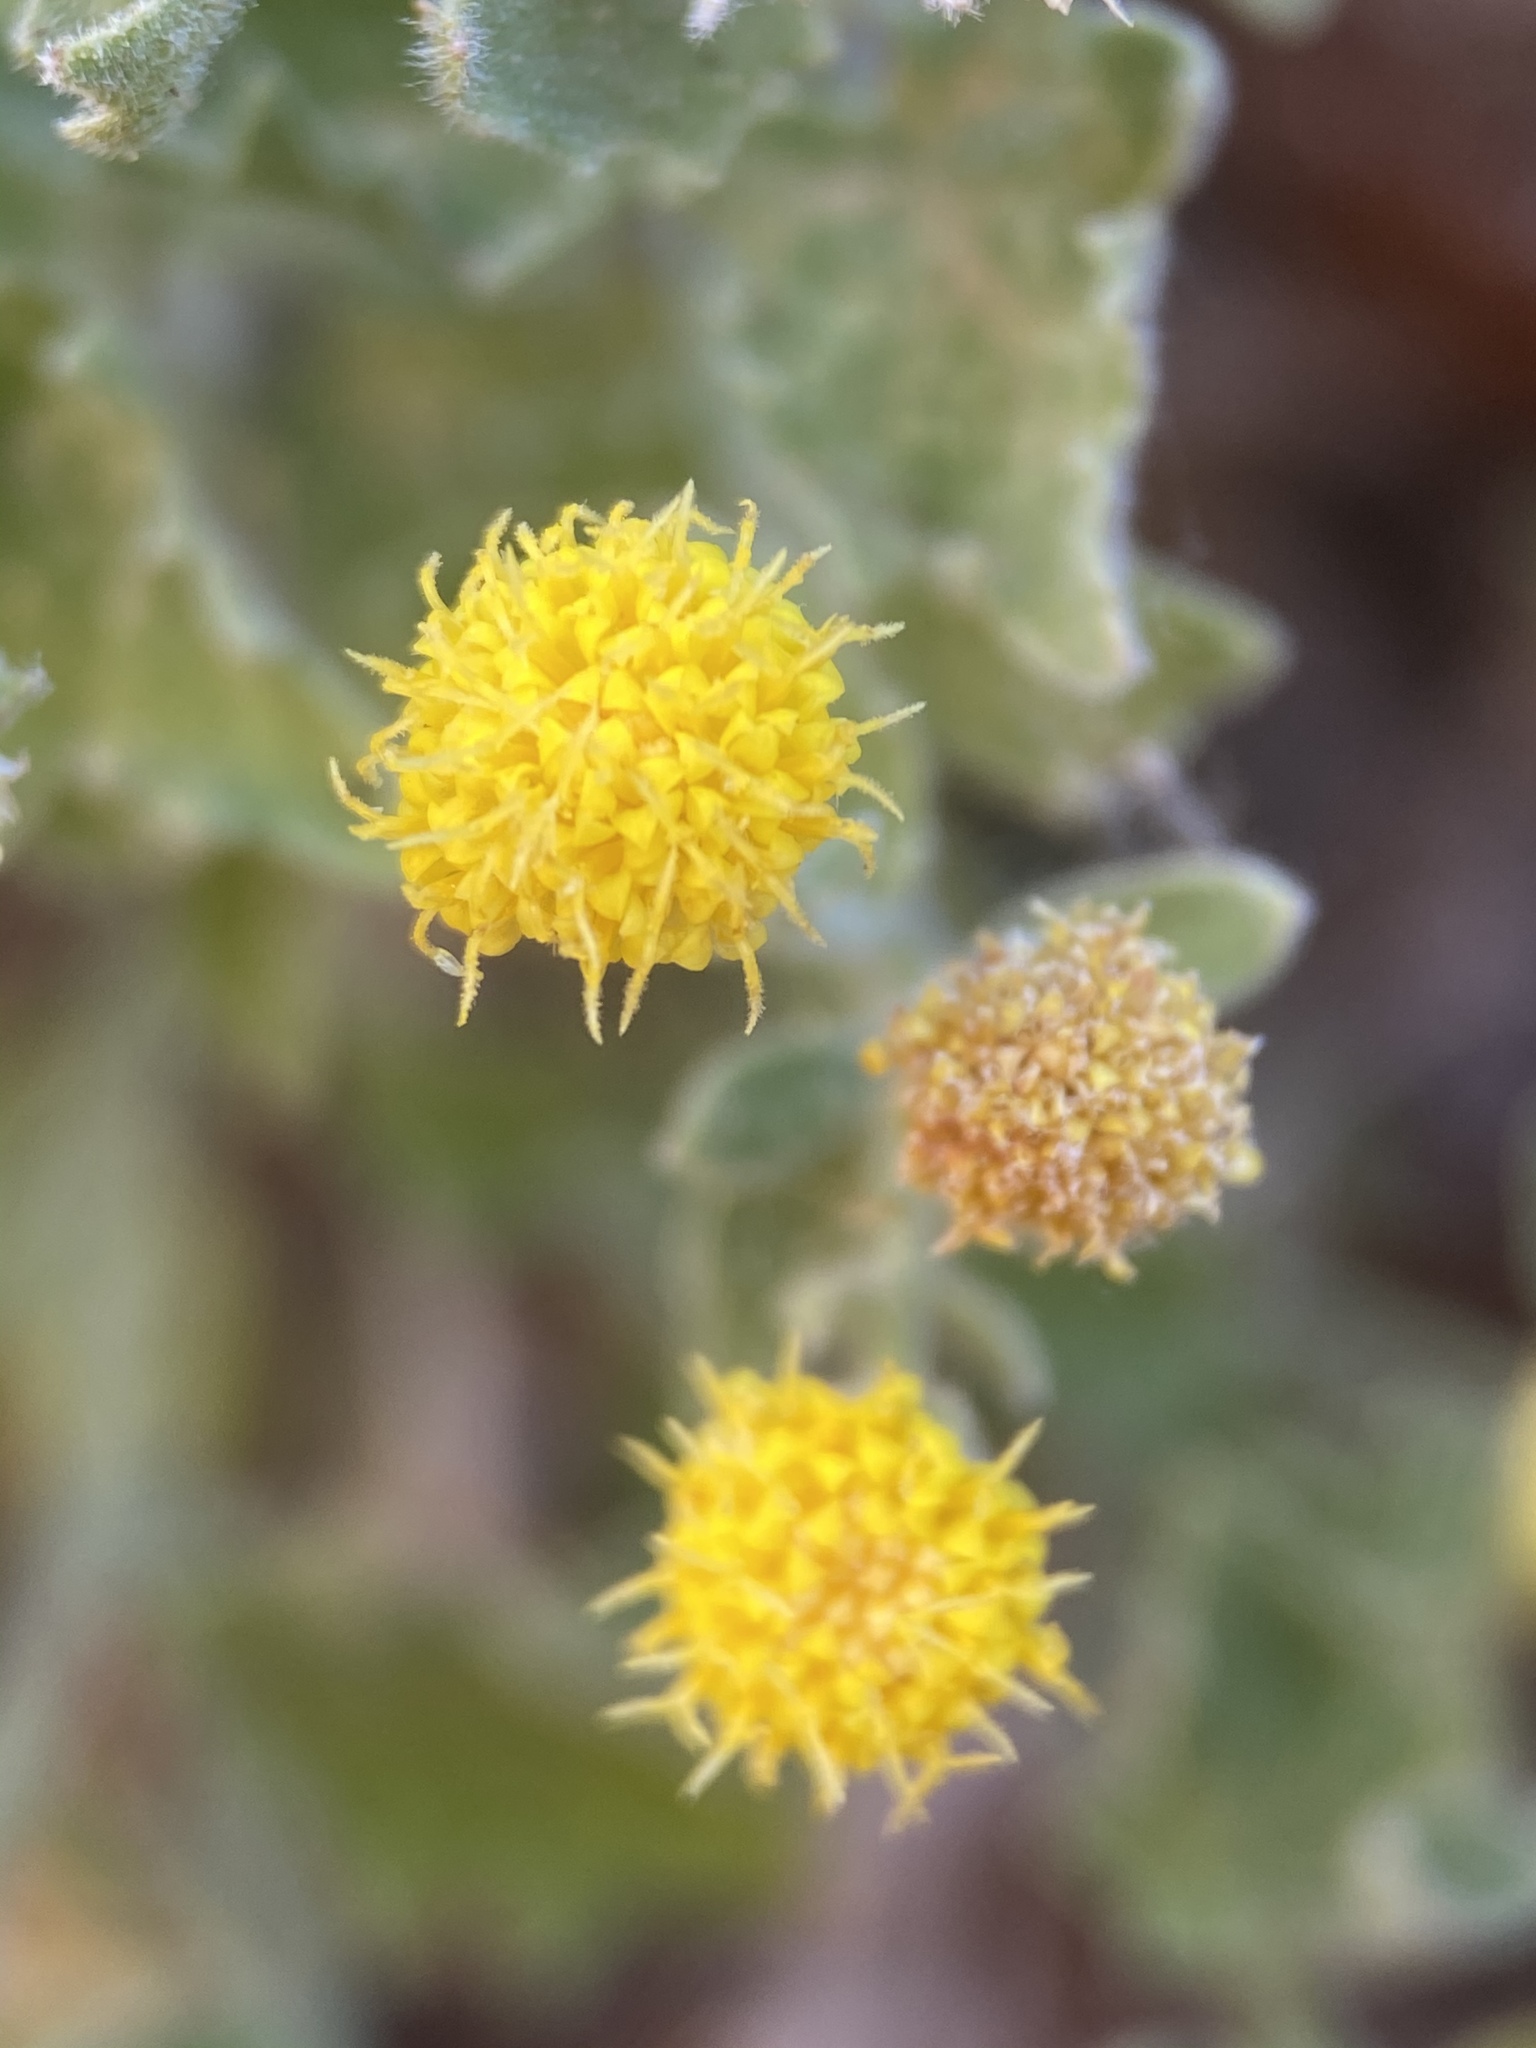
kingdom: Plantae
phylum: Tracheophyta
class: Magnoliopsida
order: Asterales
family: Asteraceae
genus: Laphamia
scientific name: Laphamia sanchezii
